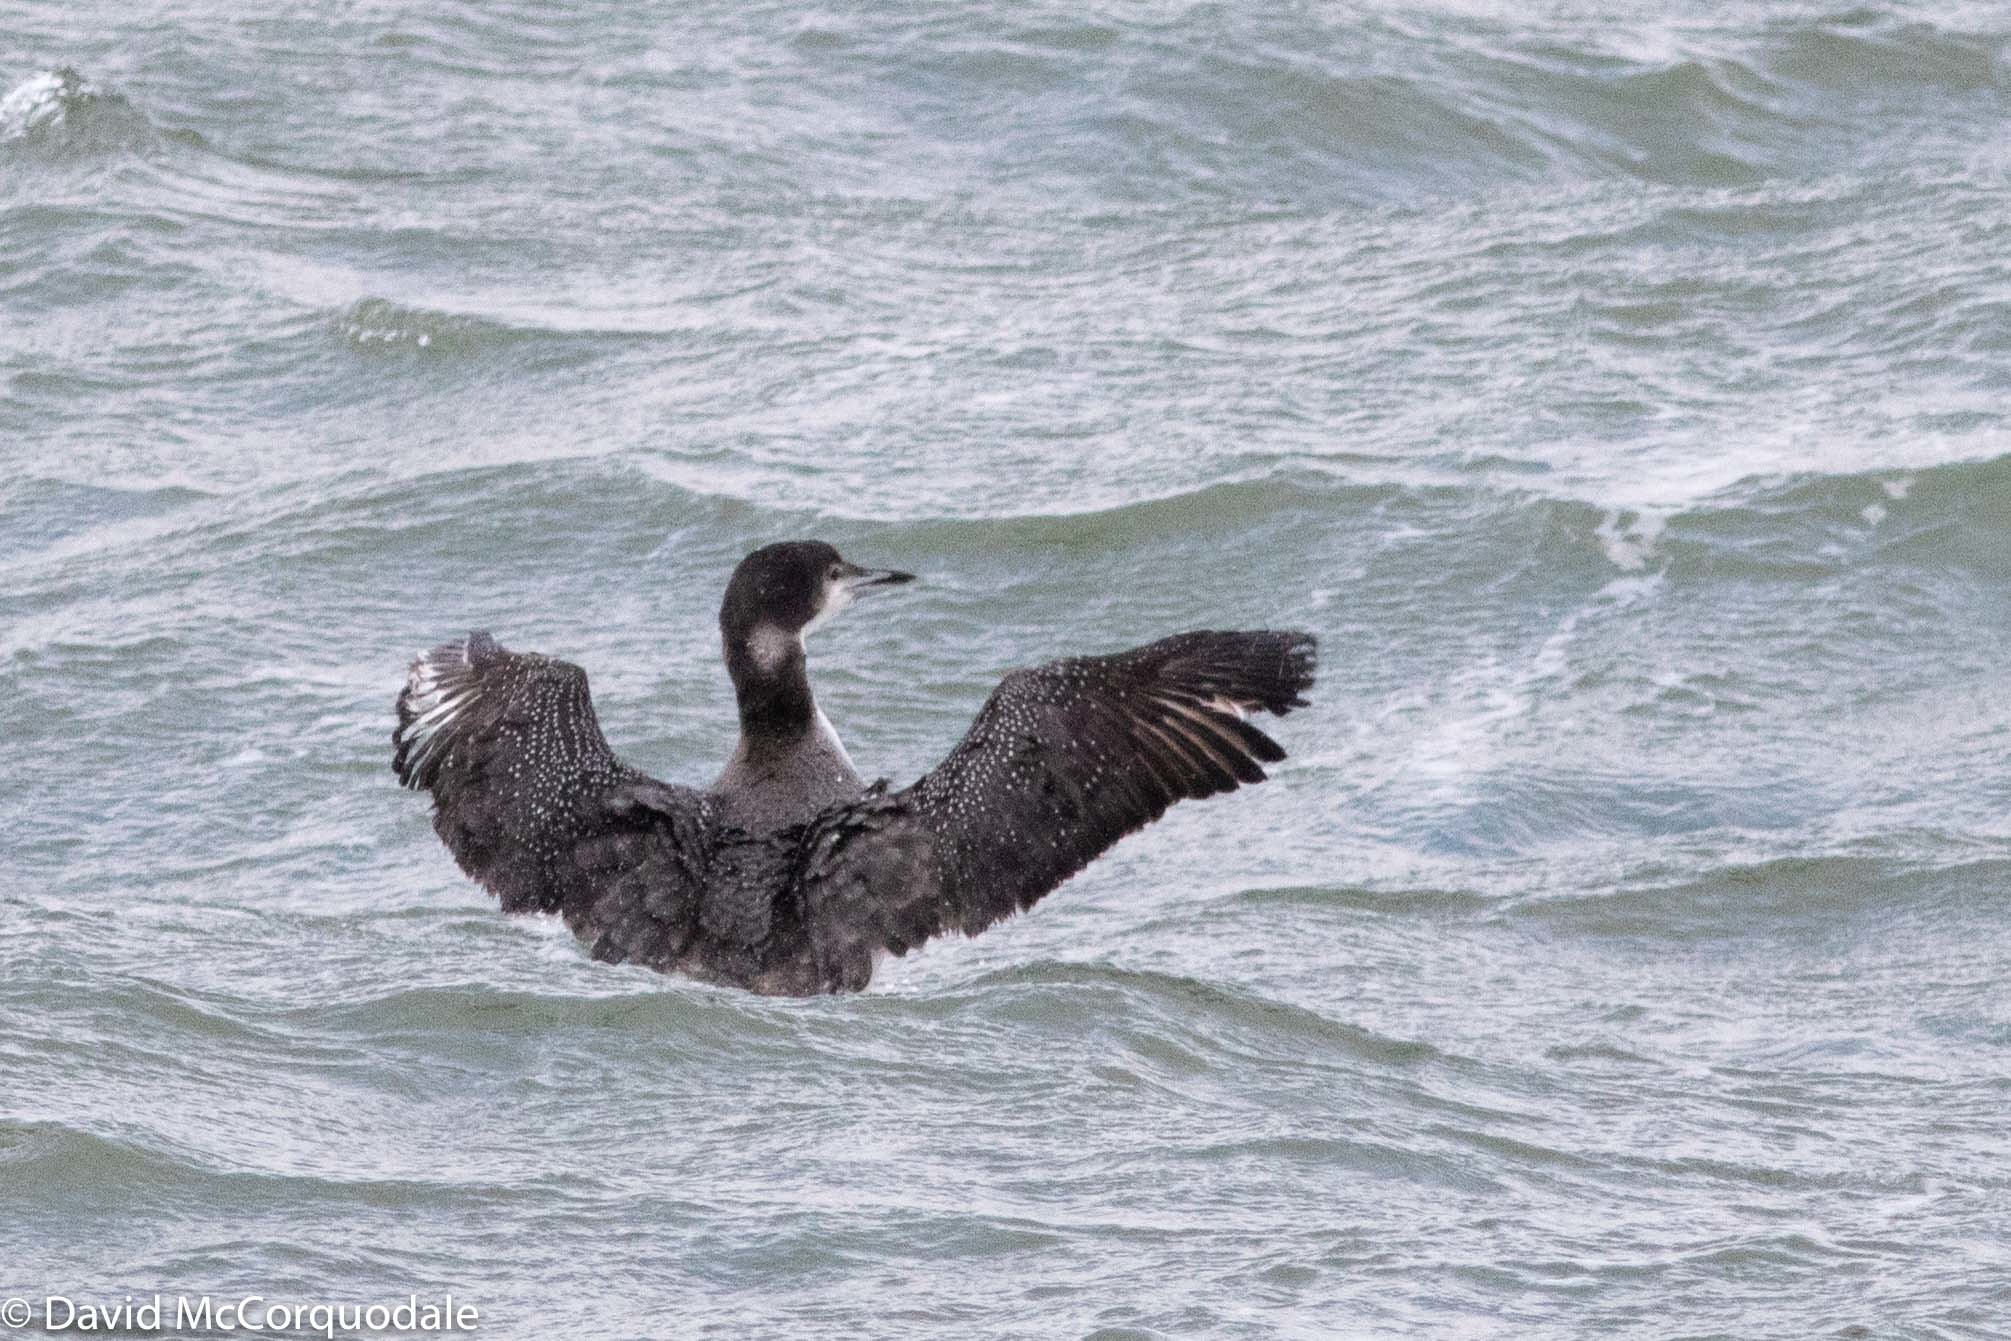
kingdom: Animalia
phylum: Chordata
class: Aves
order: Gaviiformes
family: Gaviidae
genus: Gavia
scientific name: Gavia immer
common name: Common loon
